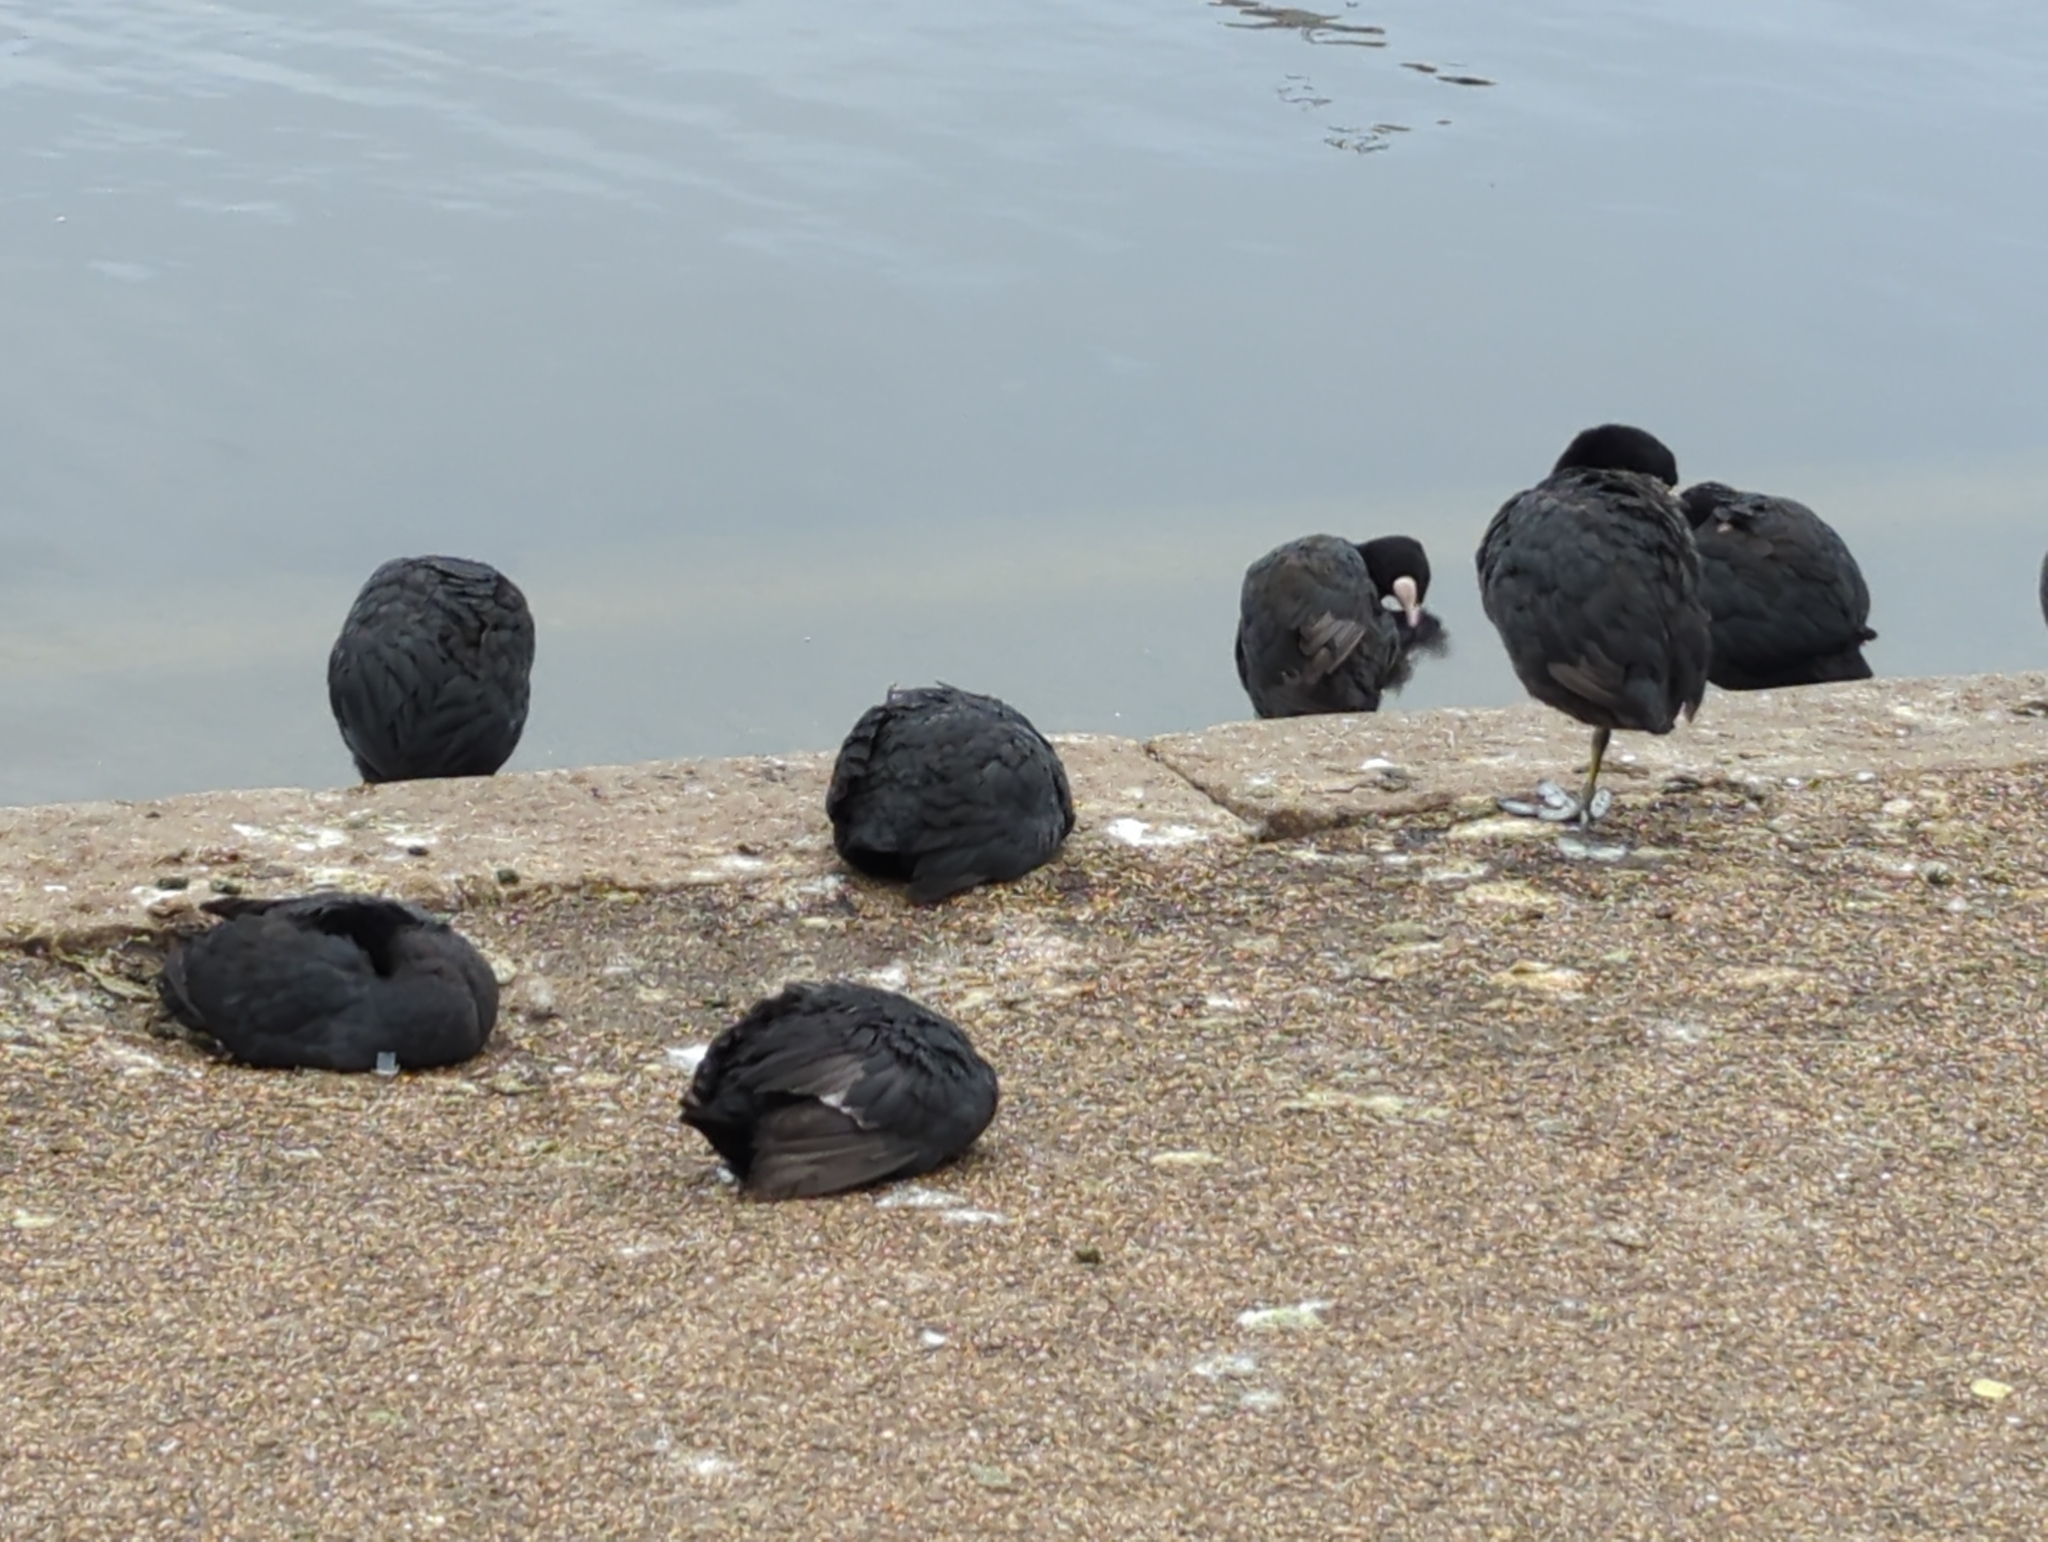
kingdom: Animalia
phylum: Chordata
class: Aves
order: Gruiformes
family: Rallidae
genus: Fulica
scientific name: Fulica atra
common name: Eurasian coot
